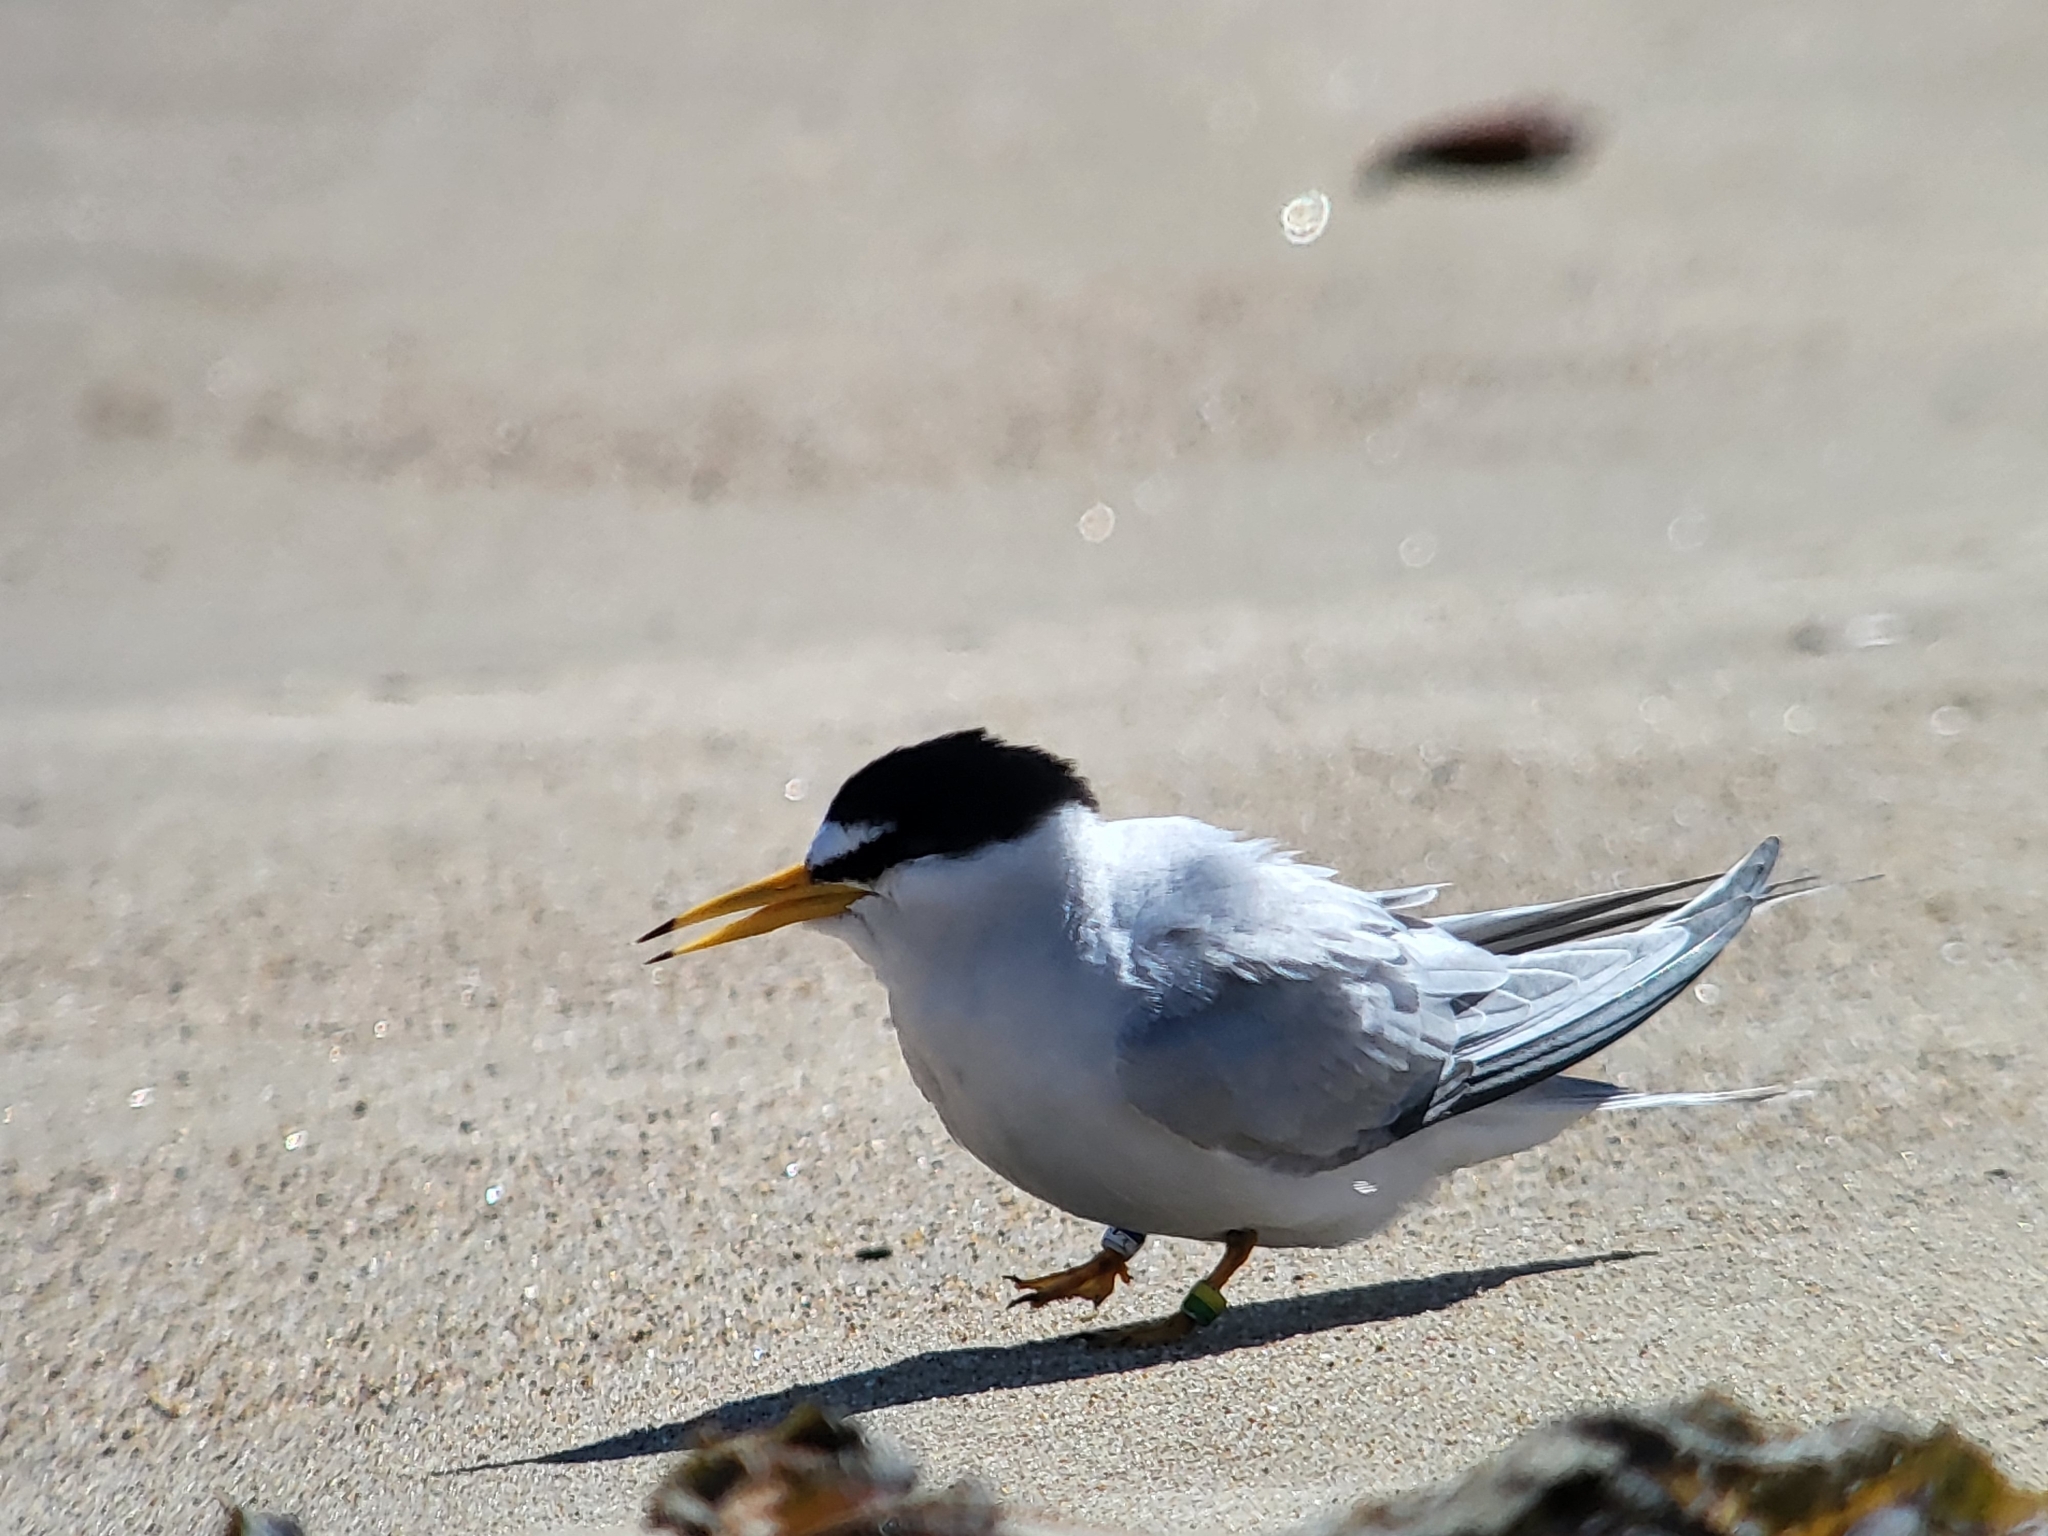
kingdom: Animalia
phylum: Chordata
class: Aves
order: Charadriiformes
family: Laridae
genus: Sternula
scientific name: Sternula antillarum
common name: Least tern
